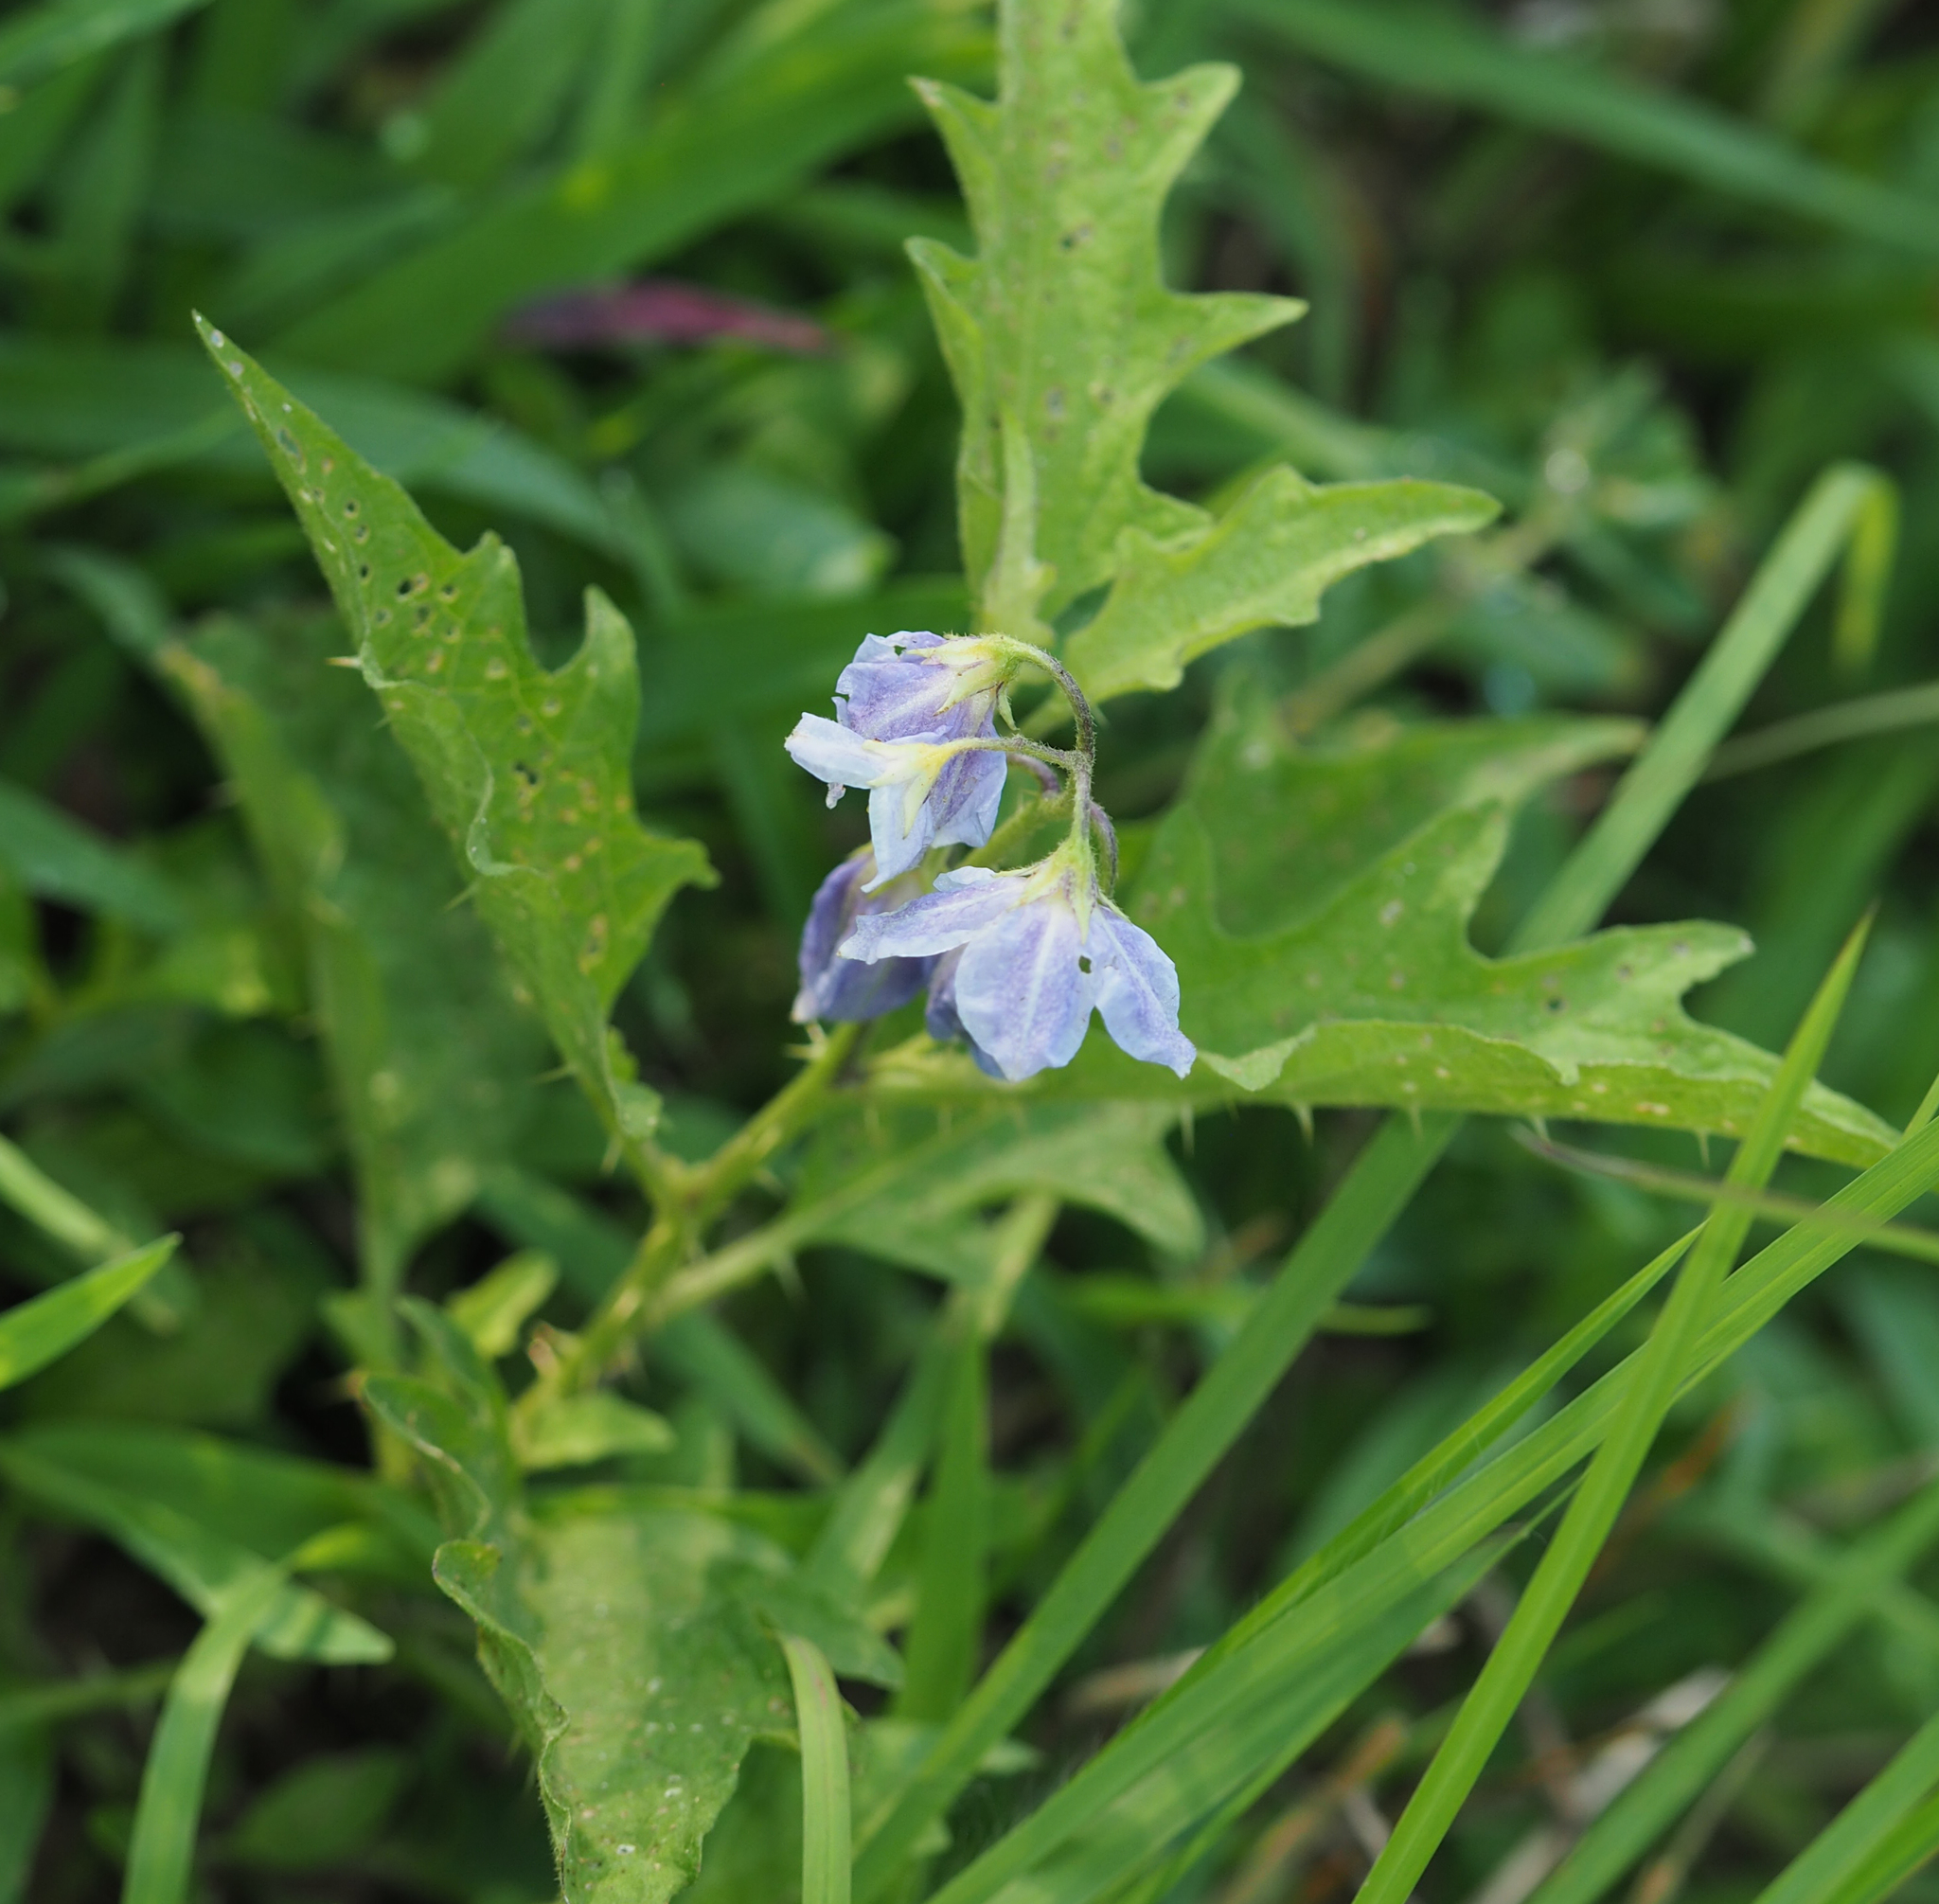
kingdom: Plantae
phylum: Tracheophyta
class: Magnoliopsida
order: Solanales
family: Solanaceae
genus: Solanum
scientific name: Solanum carolinense
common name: Horse-nettle
